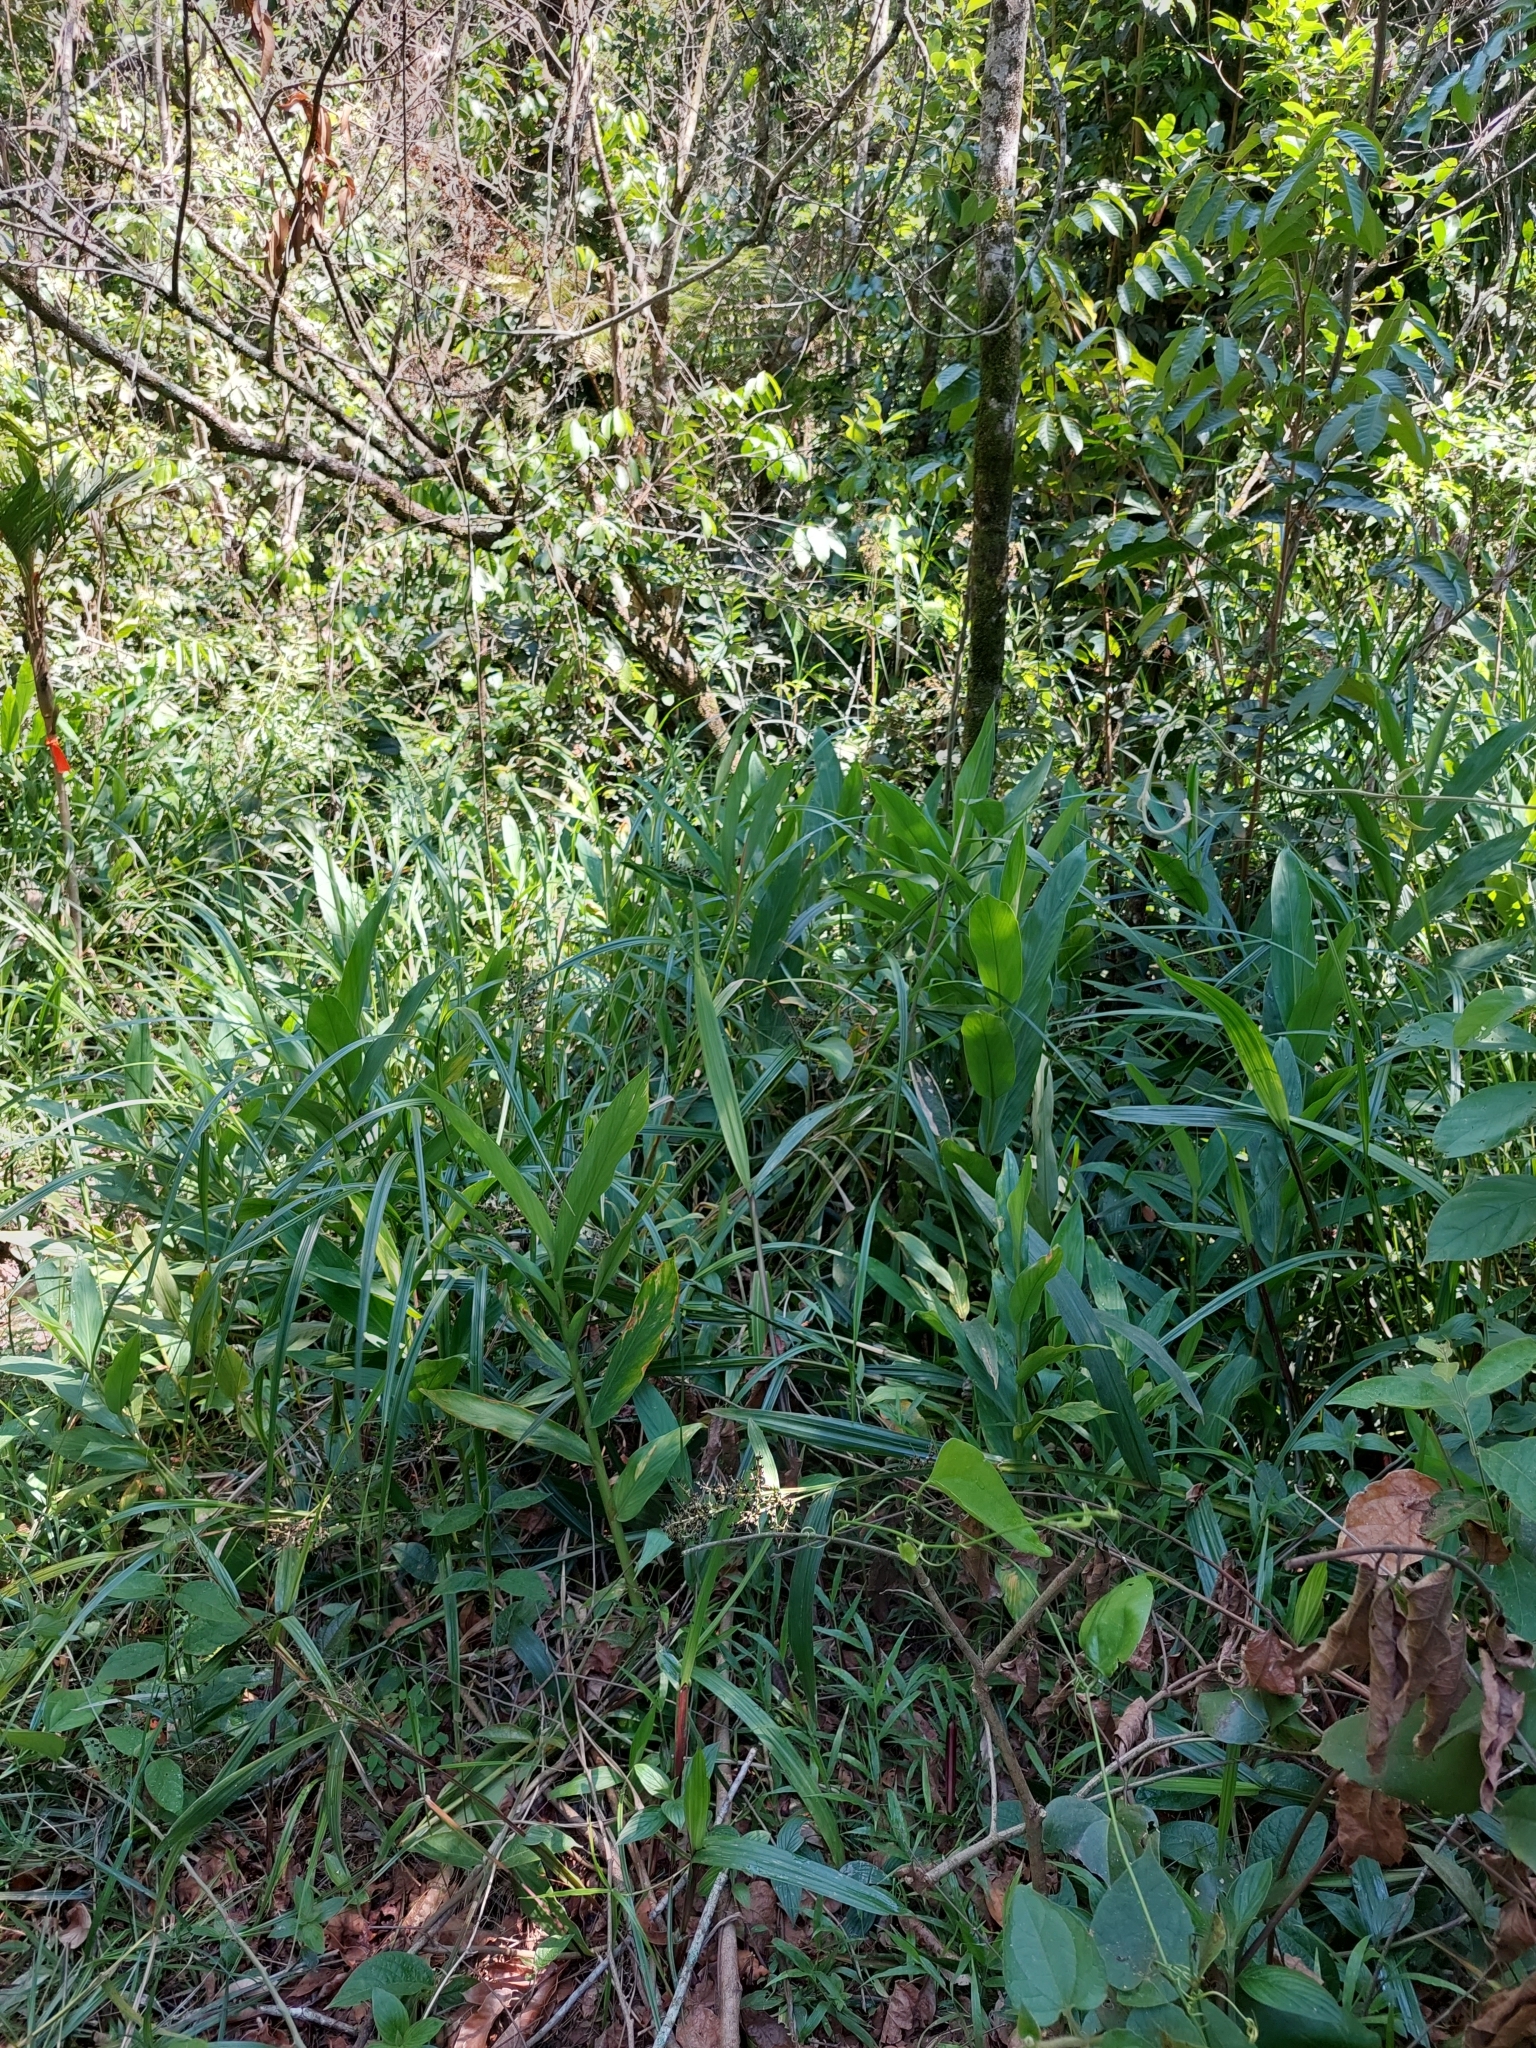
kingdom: Plantae
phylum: Tracheophyta
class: Liliopsida
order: Zingiberales
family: Zingiberaceae
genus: Hedychium
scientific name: Hedychium coronarium
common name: White garland-lily
